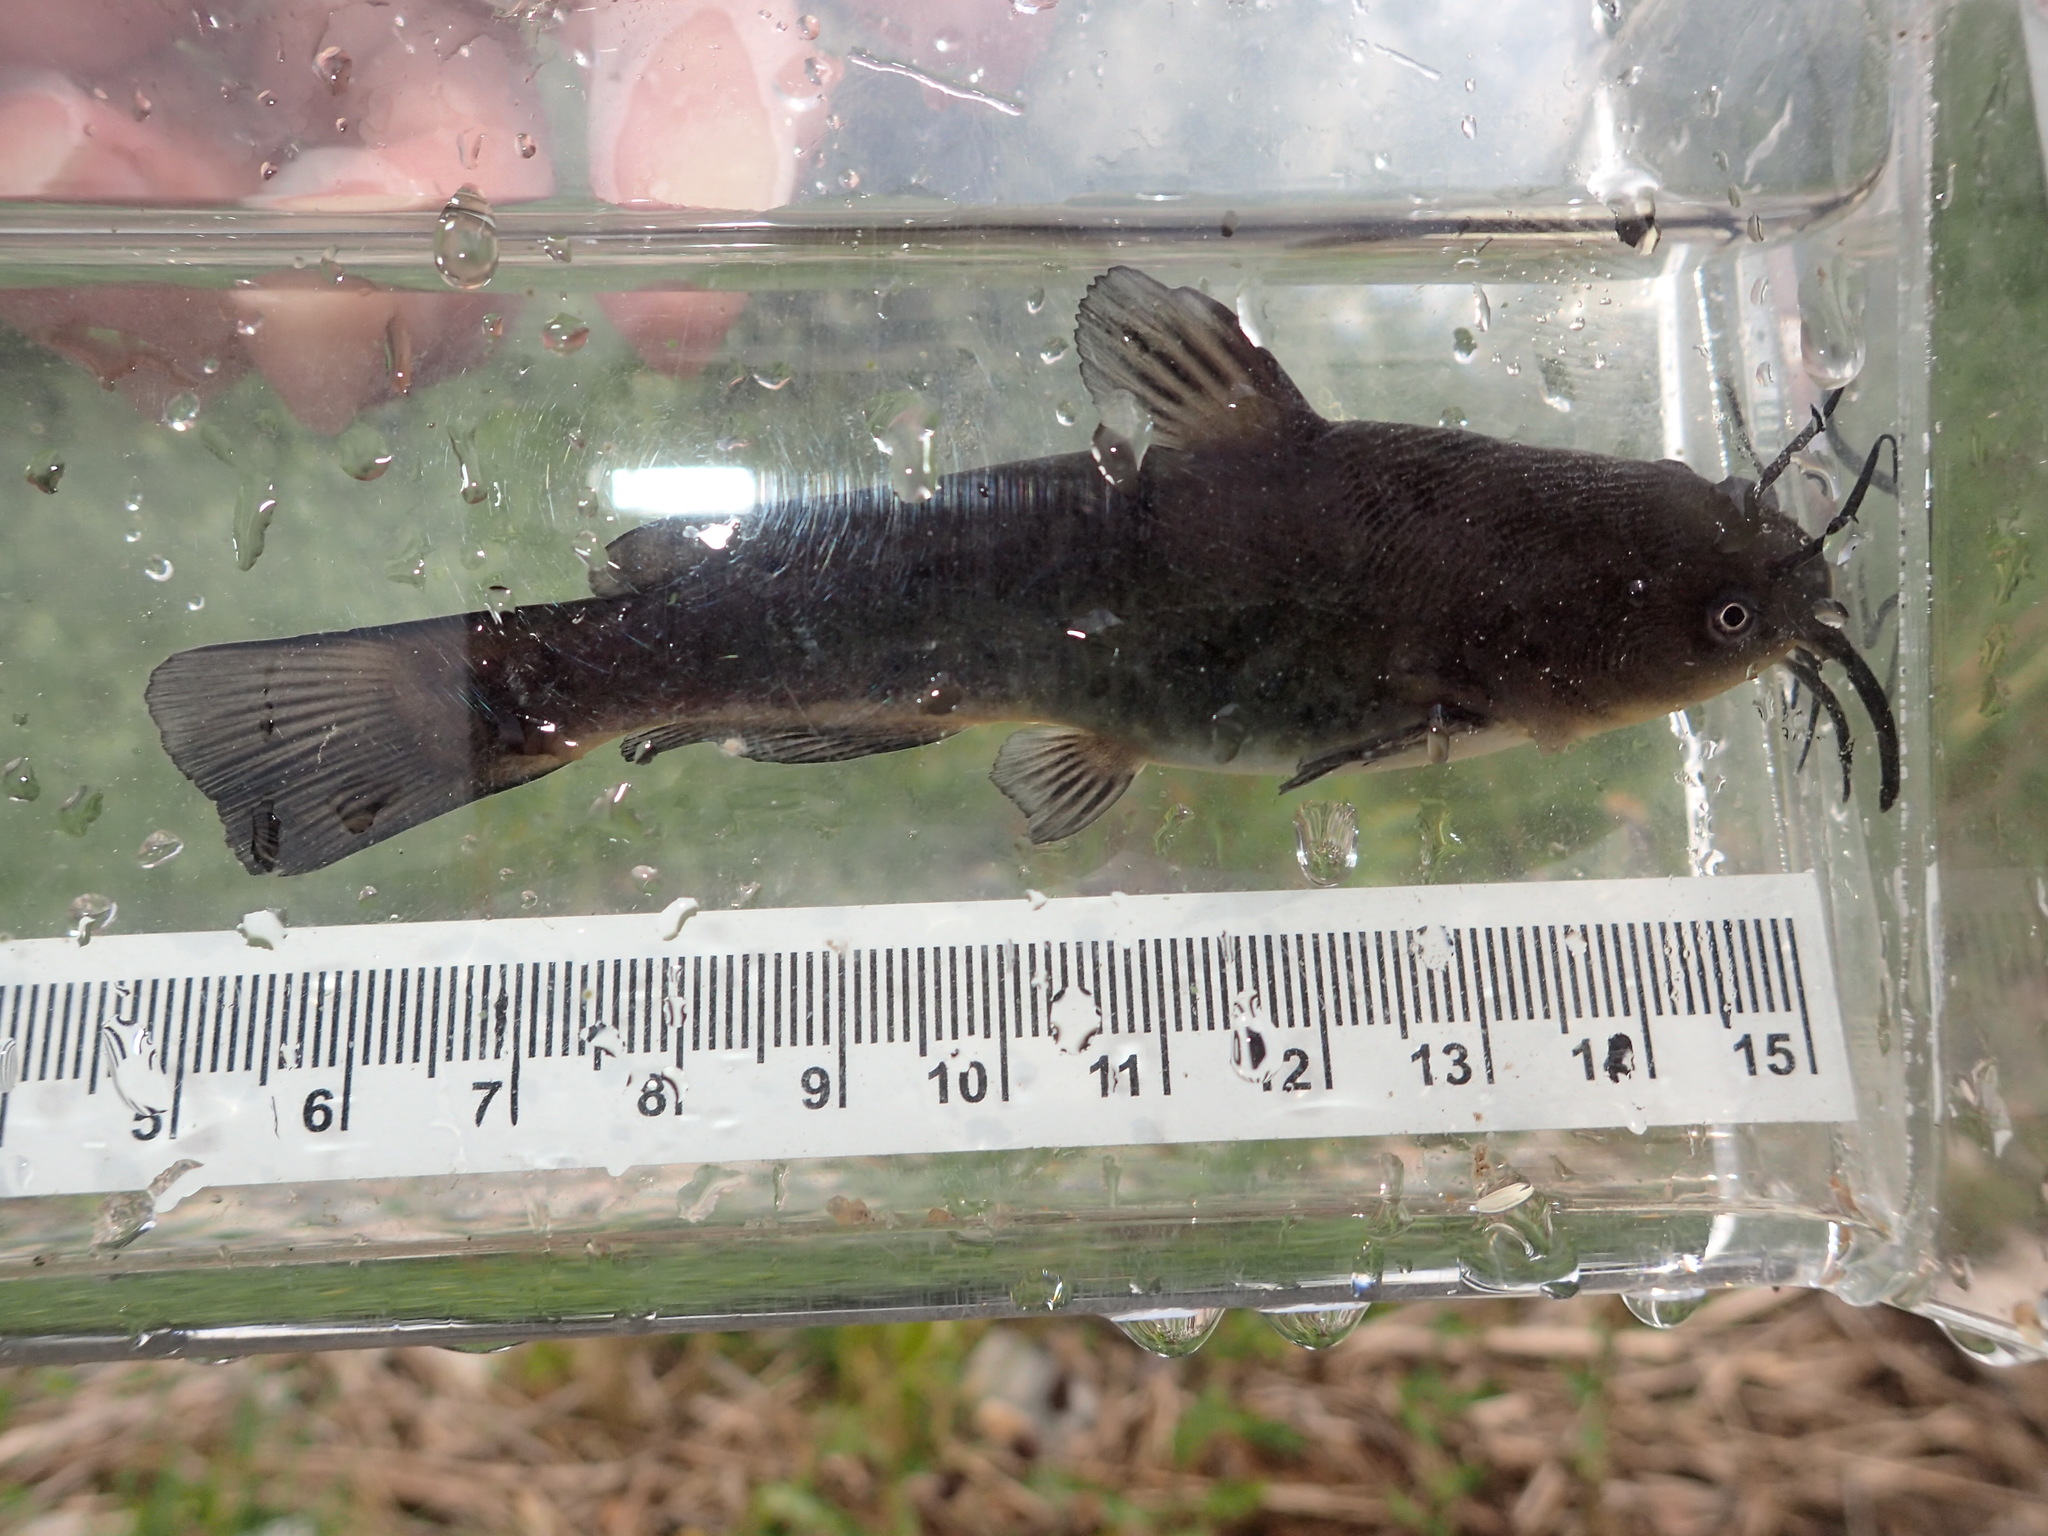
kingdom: Animalia
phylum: Chordata
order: Siluriformes
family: Ictaluridae
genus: Ameiurus
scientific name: Ameiurus nebulosus
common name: Brown bullhead
